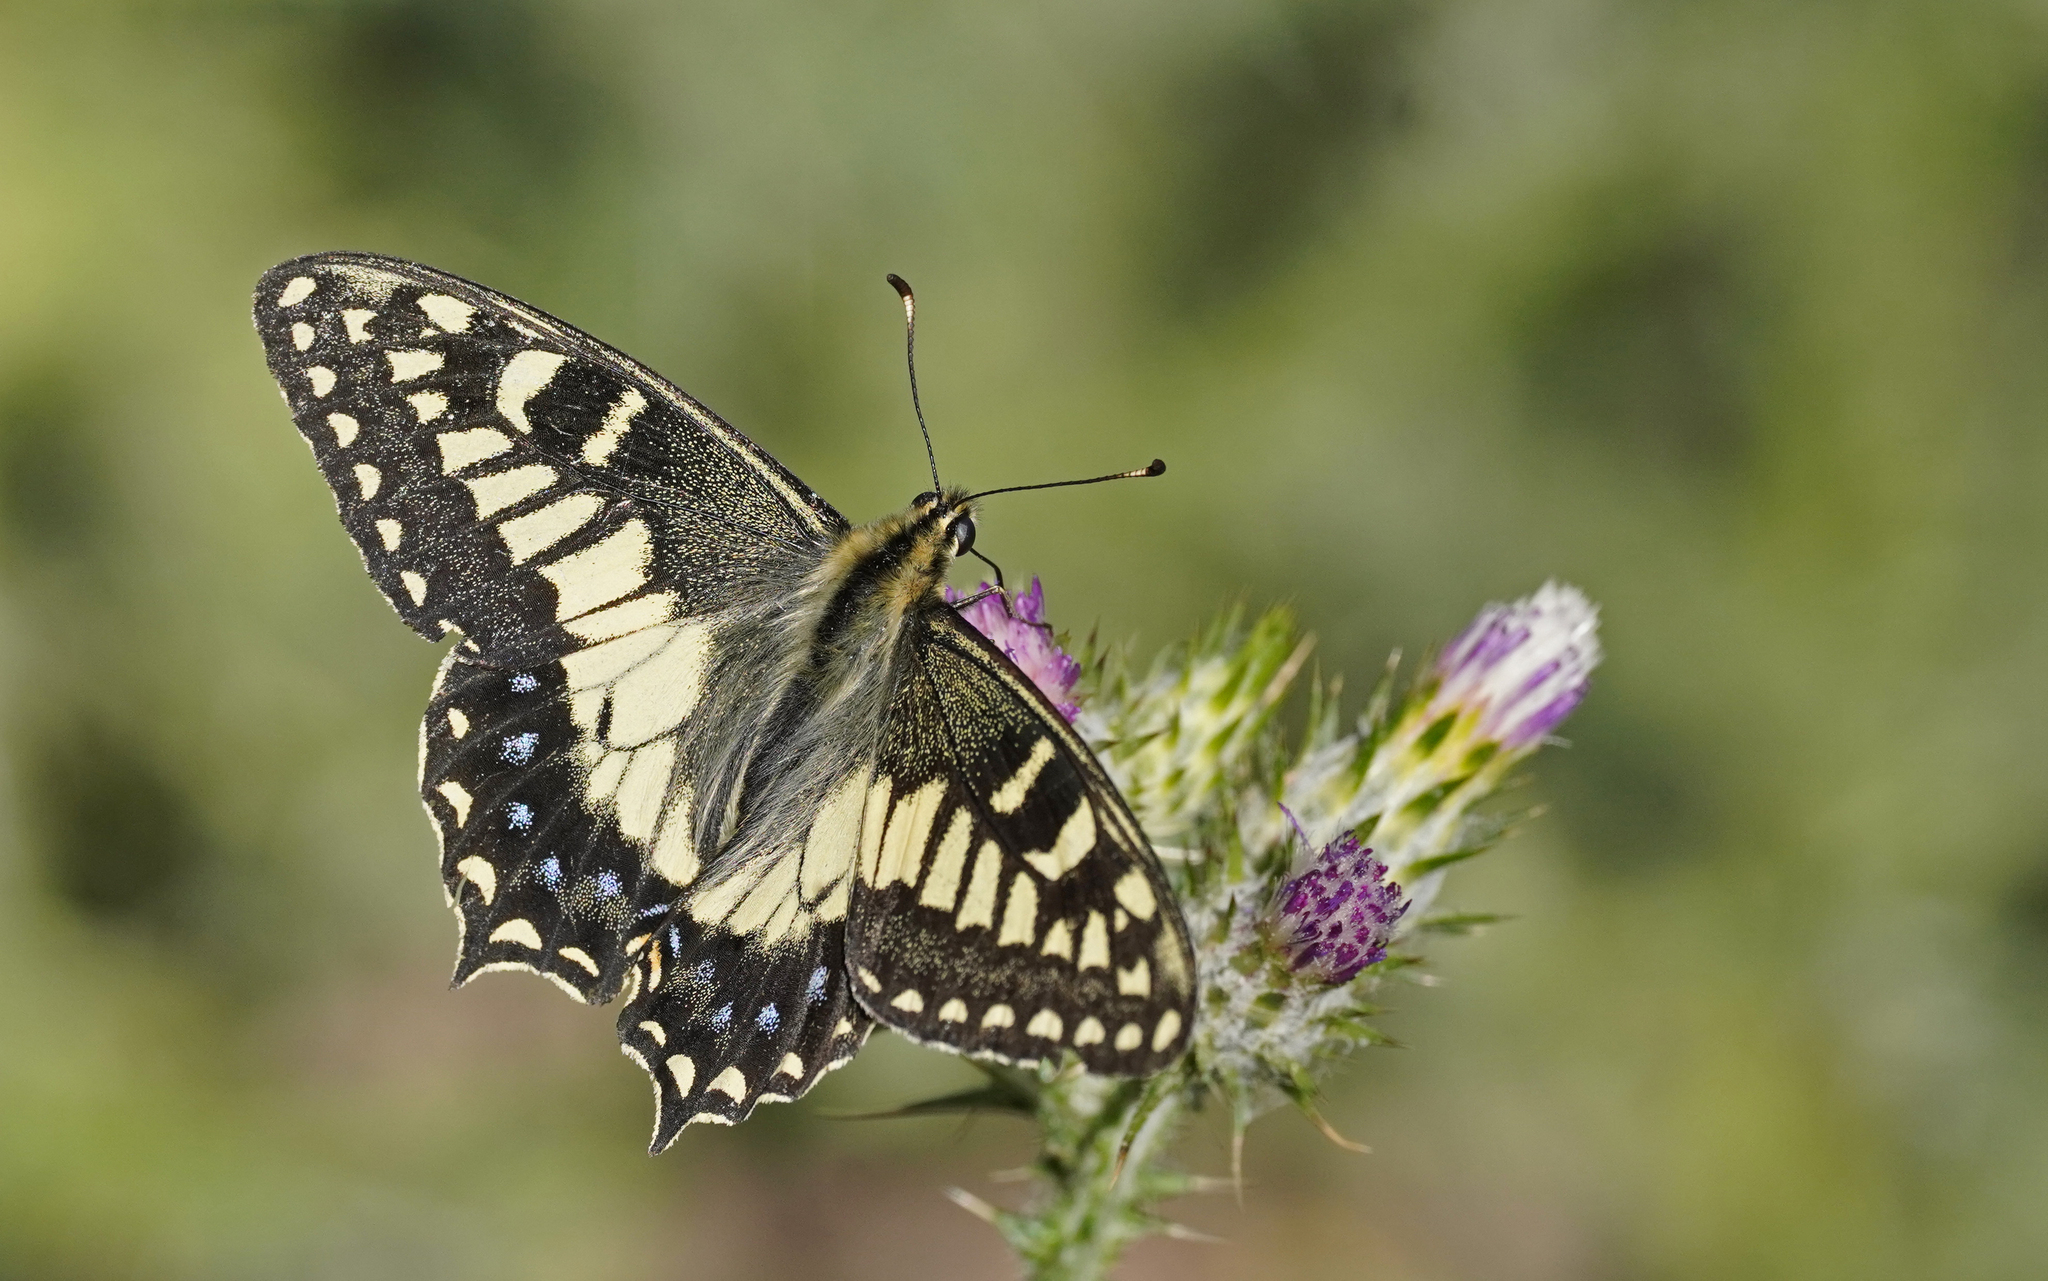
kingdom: Animalia
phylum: Arthropoda
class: Insecta
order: Lepidoptera
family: Papilionidae
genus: Papilio
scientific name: Papilio hospiton
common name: Corsican swallowtail
